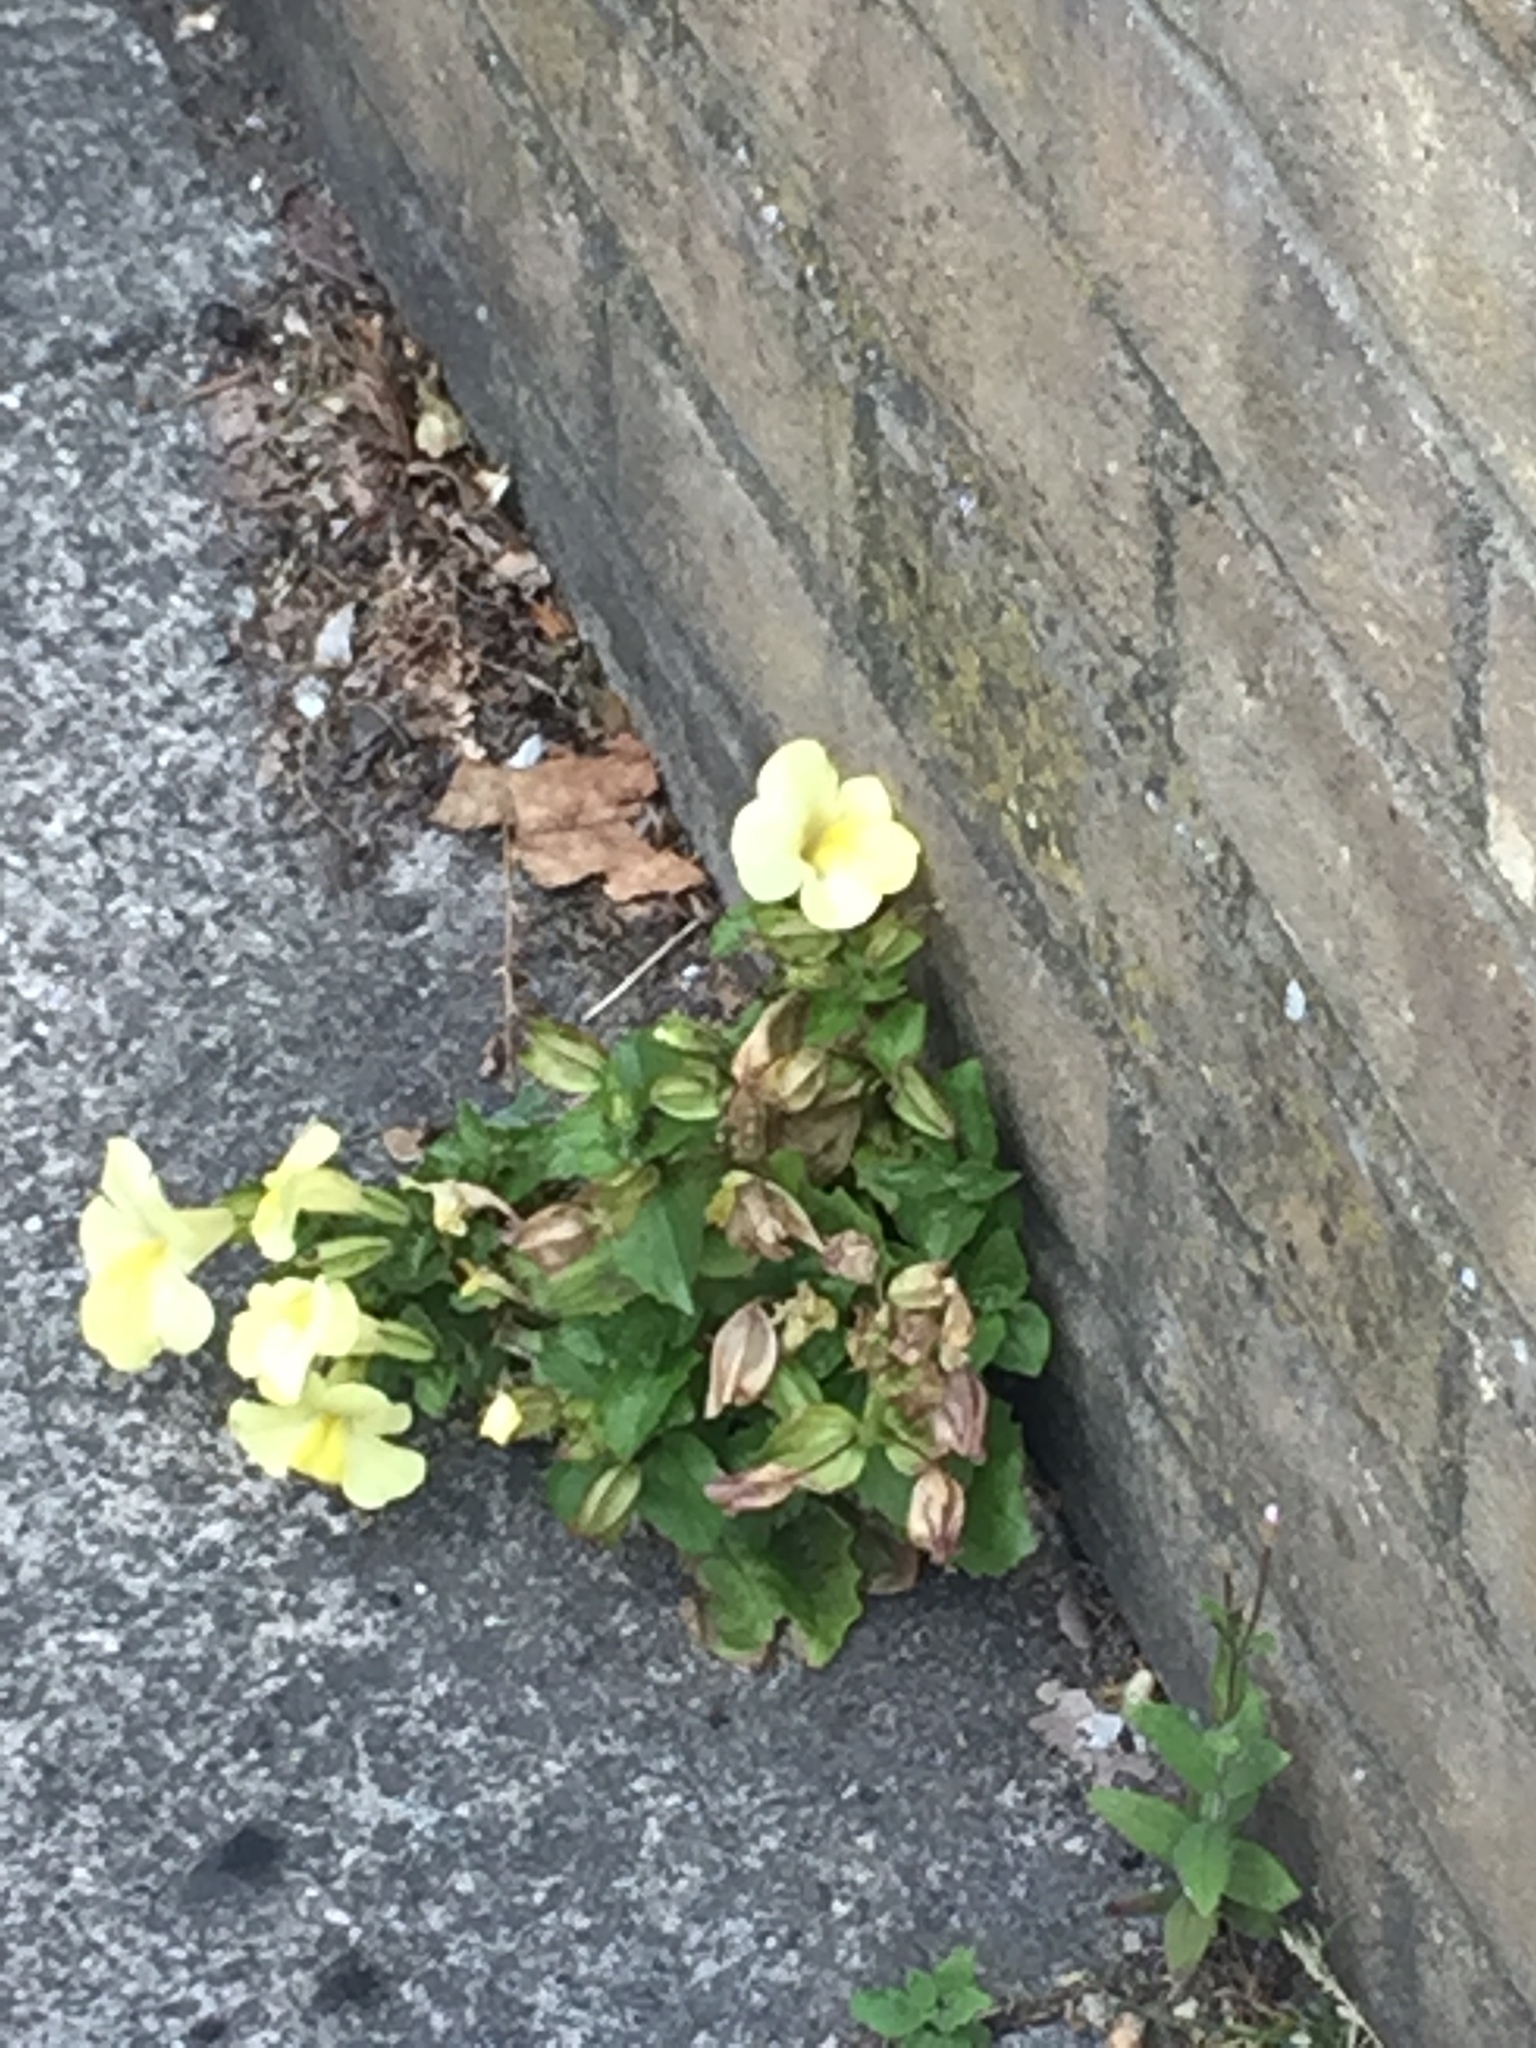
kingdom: Plantae
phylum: Tracheophyta
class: Magnoliopsida
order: Ericales
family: Primulaceae
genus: Primula
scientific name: Primula vulgaris
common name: Primrose
